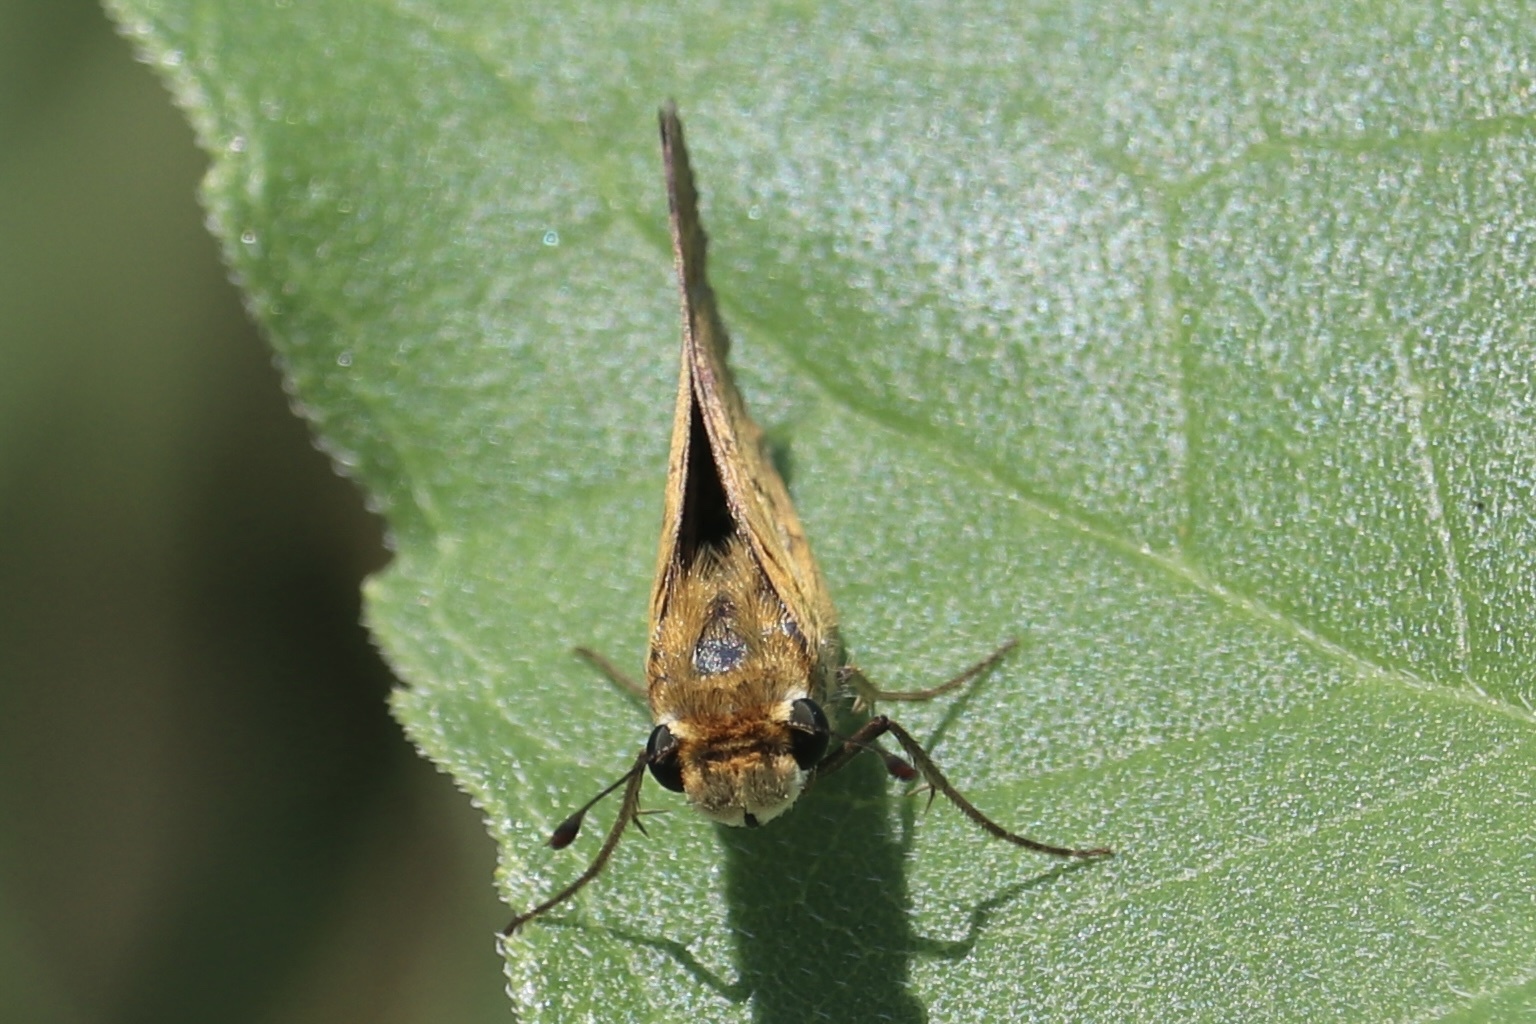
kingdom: Animalia
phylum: Arthropoda
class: Insecta
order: Lepidoptera
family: Hesperiidae
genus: Hylephila
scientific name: Hylephila phyleus
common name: Fiery skipper
